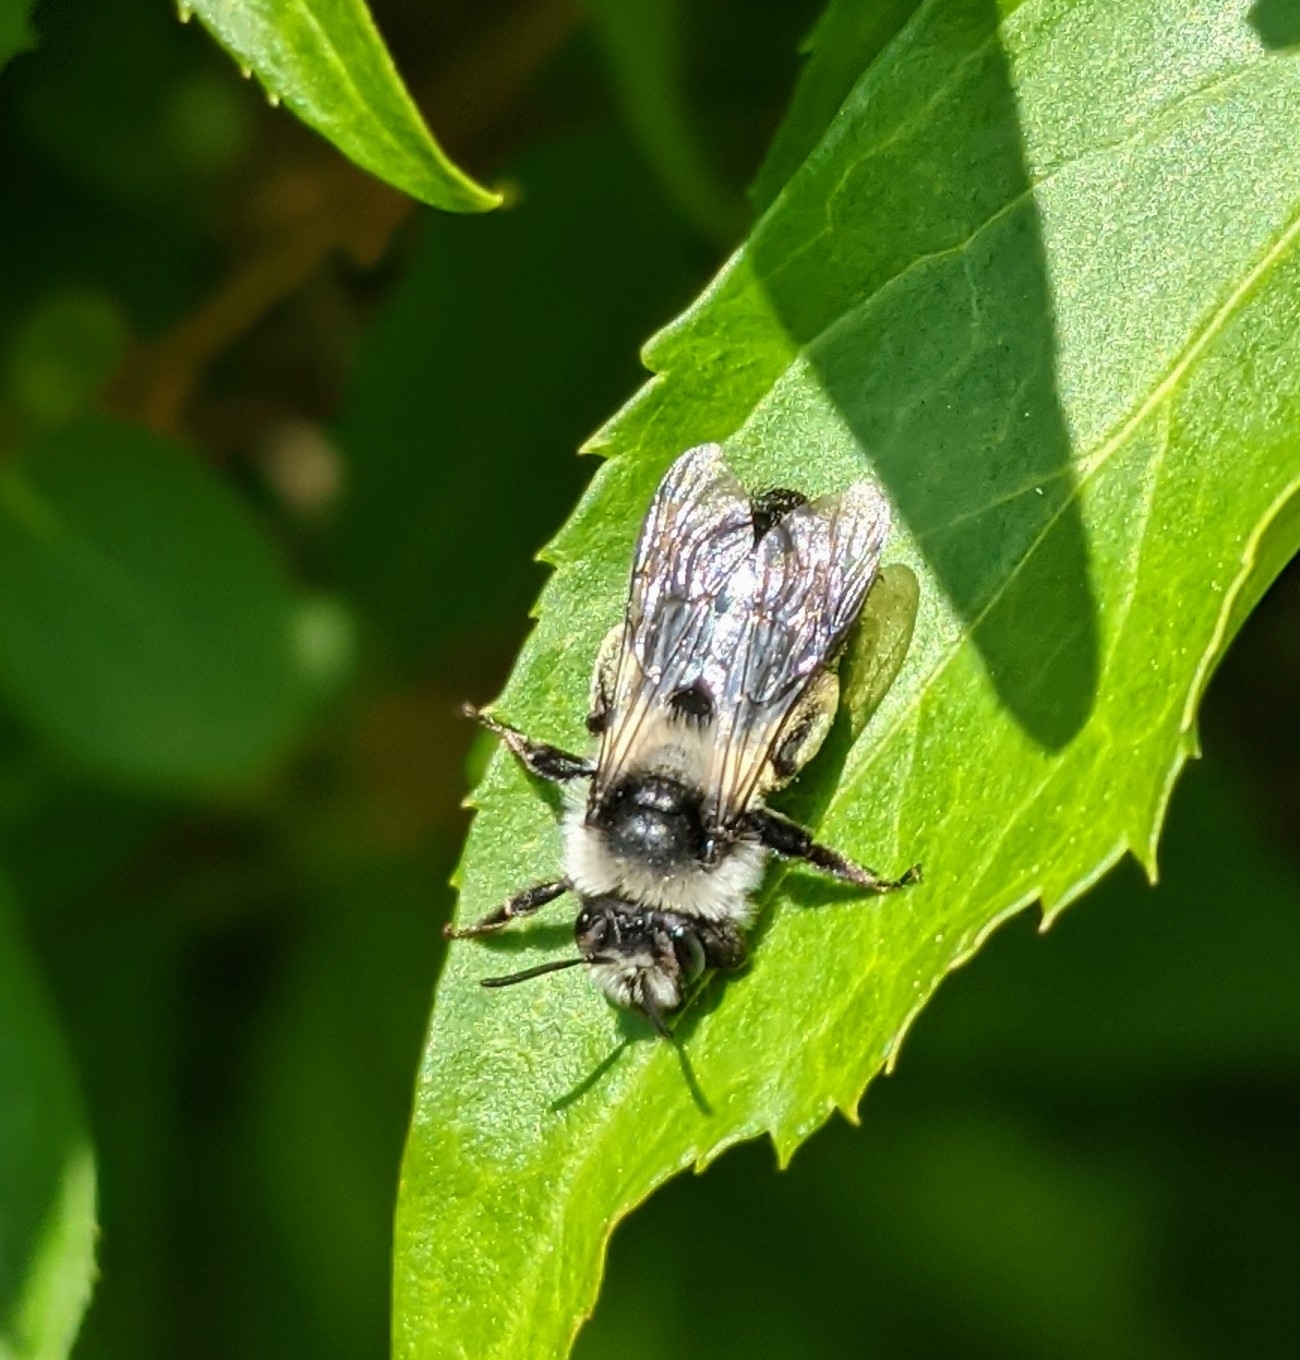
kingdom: Animalia
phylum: Arthropoda
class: Insecta
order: Hymenoptera
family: Andrenidae
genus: Andrena
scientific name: Andrena cineraria
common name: Ashy mining bee
